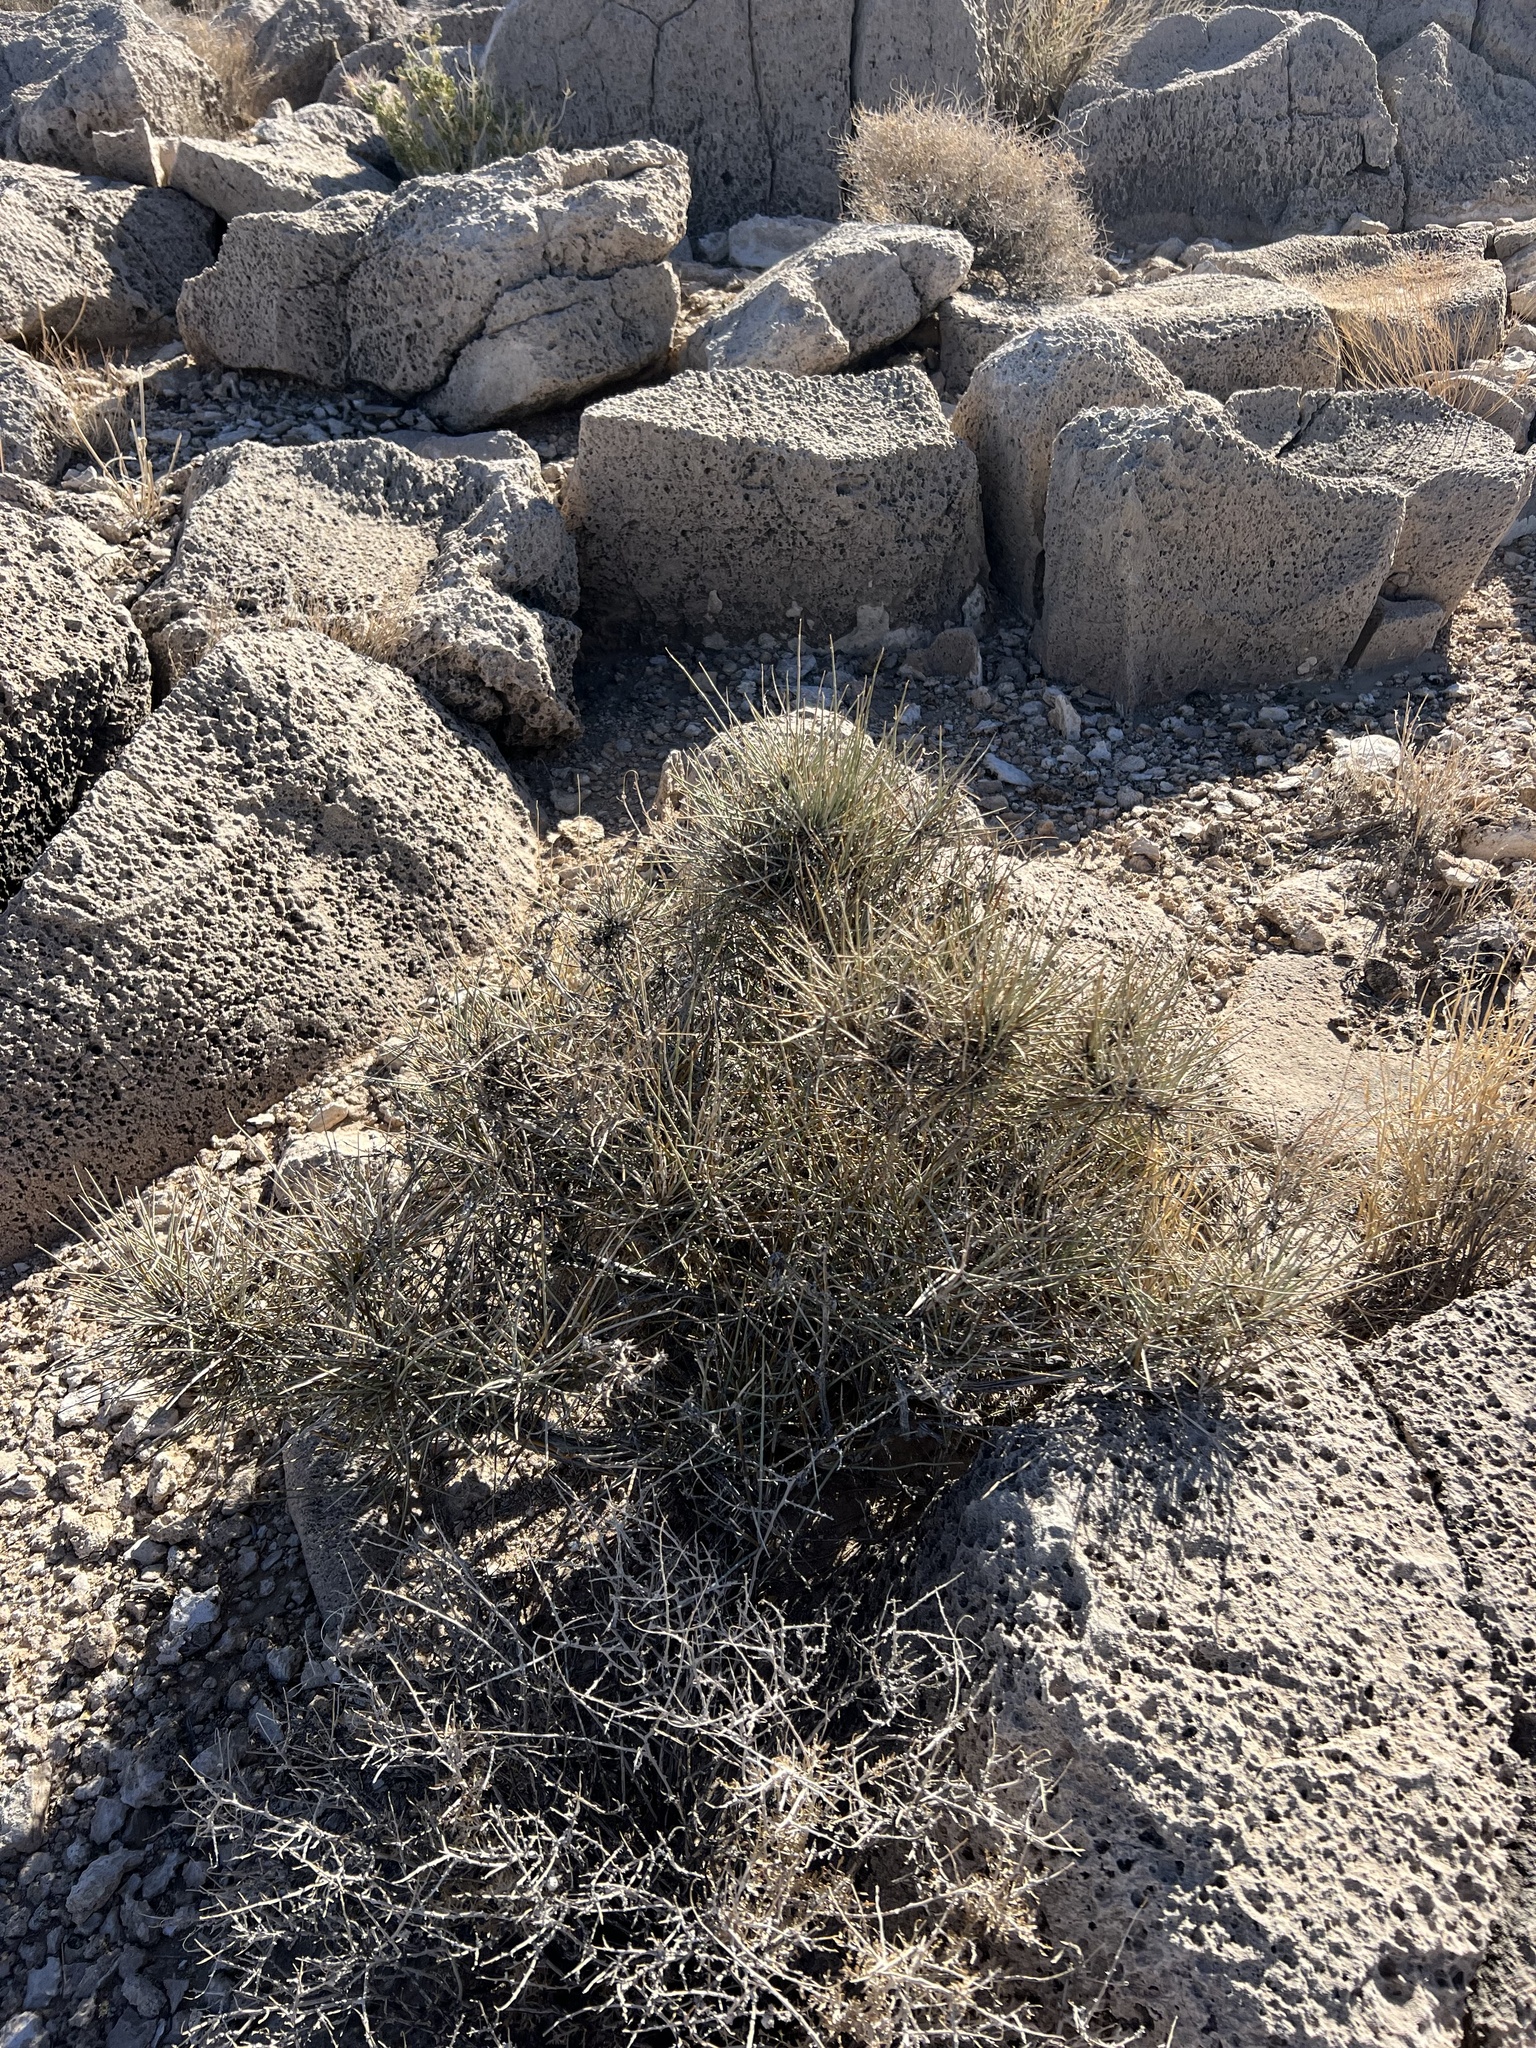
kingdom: Plantae
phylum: Tracheophyta
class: Magnoliopsida
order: Caryophyllales
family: Cactaceae
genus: Echinocactus
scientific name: Echinocactus polycephalus
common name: Cottontop cactus
